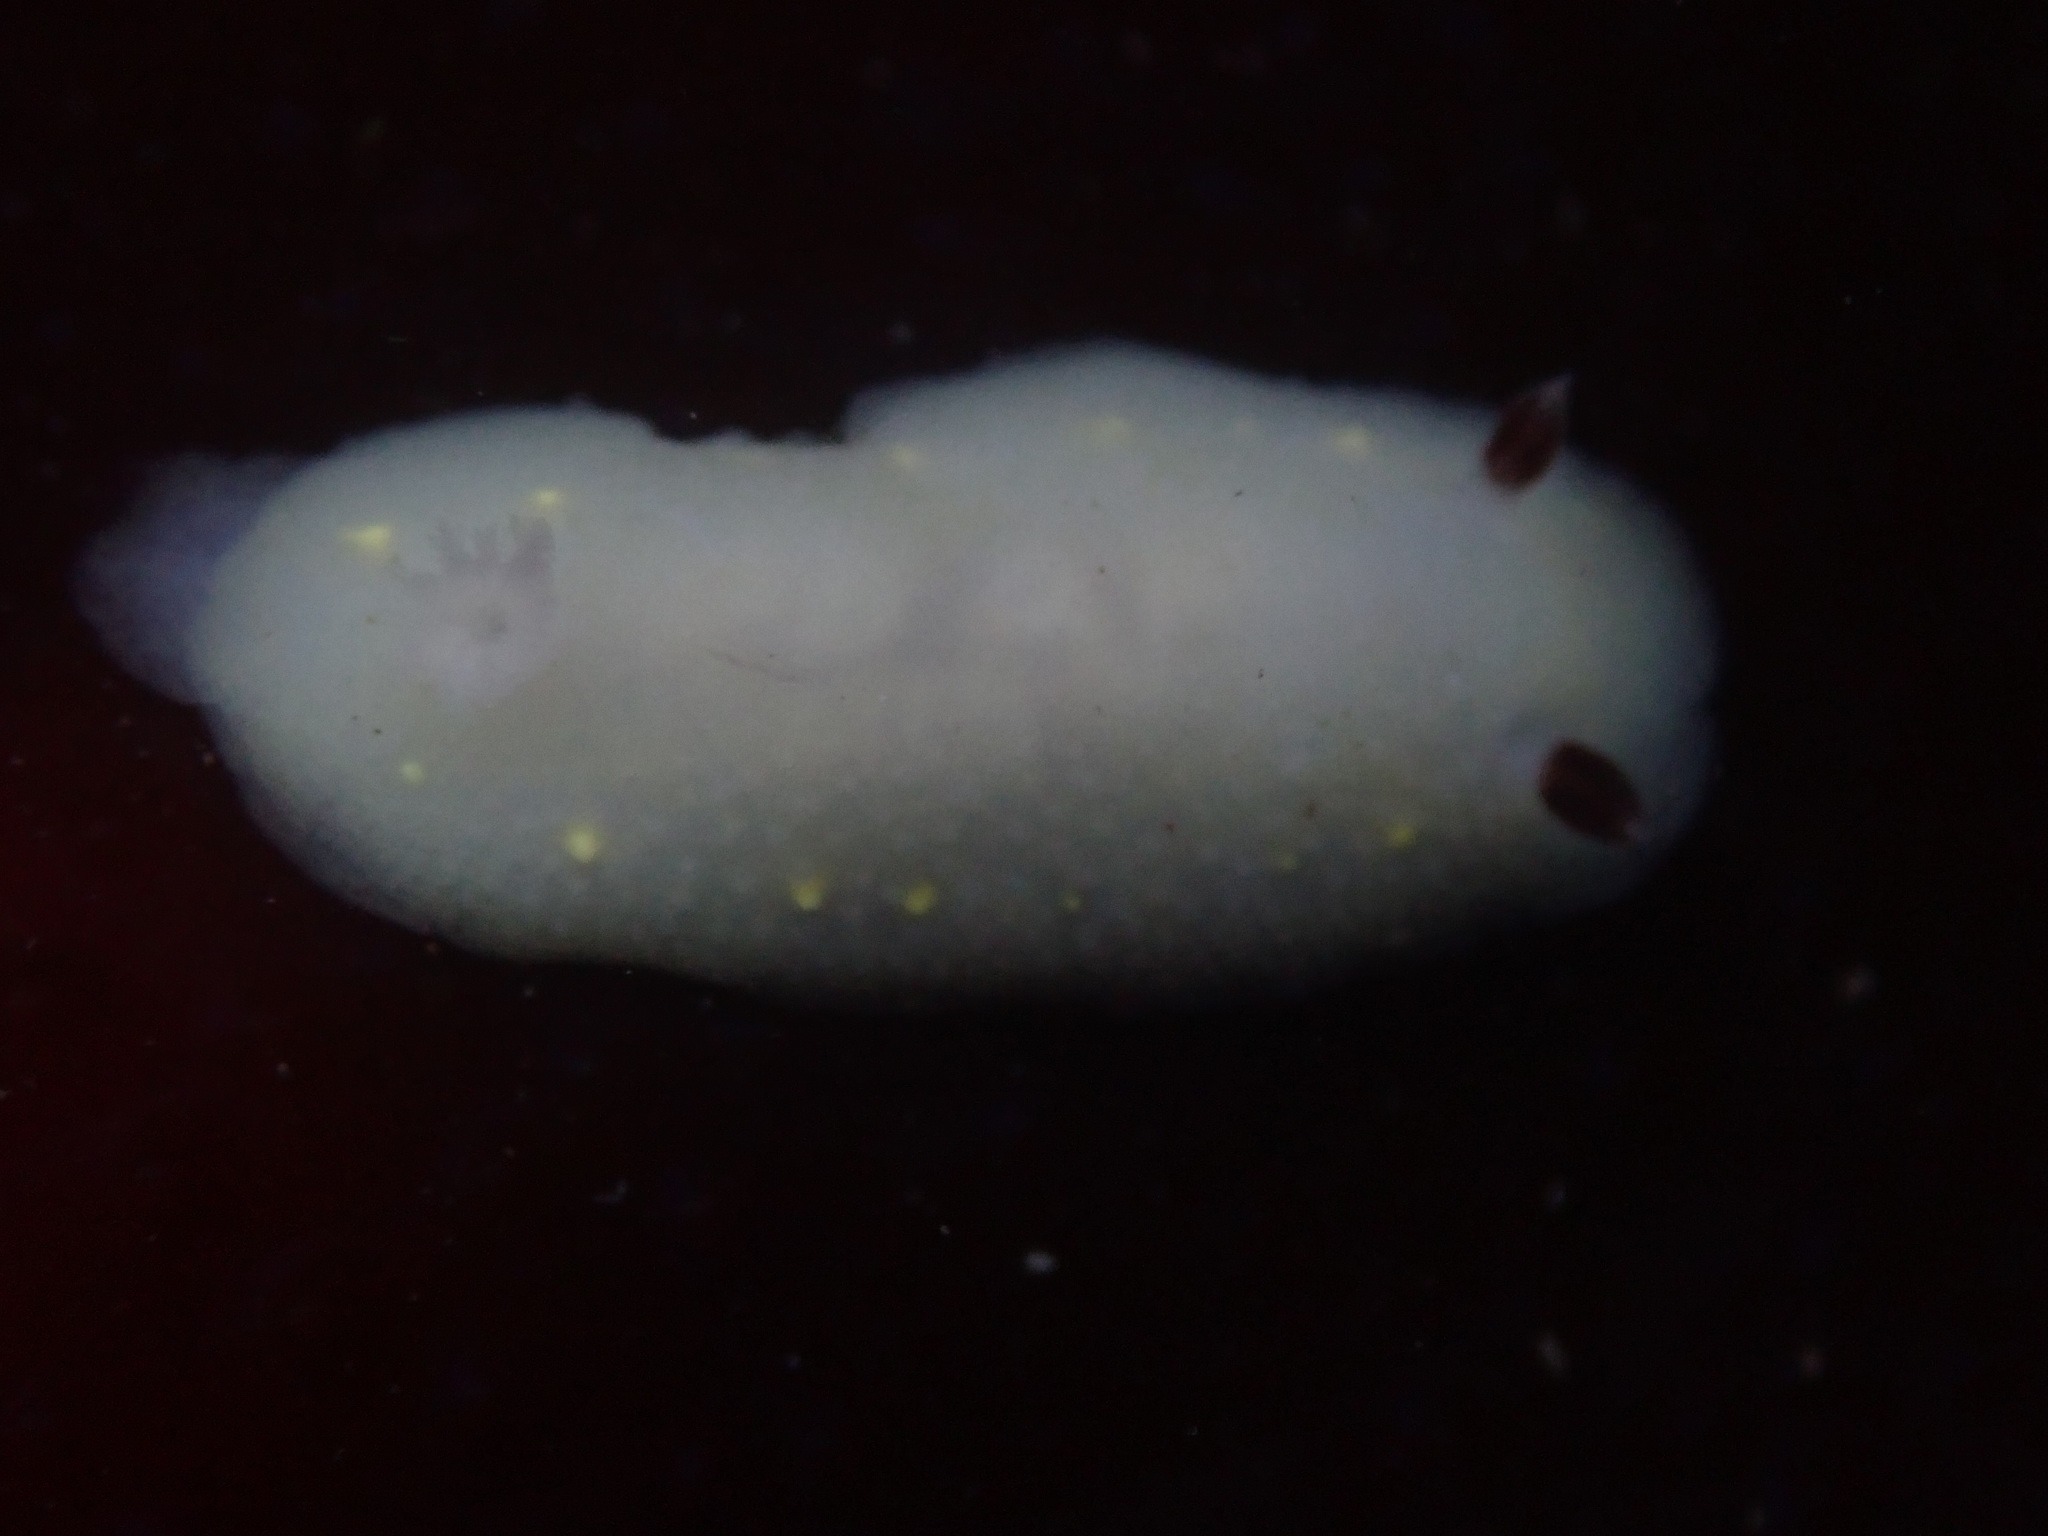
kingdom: Animalia
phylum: Mollusca
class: Gastropoda
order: Nudibranchia
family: Cadlinidae
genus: Cadlina
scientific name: Cadlina flavomaculata
